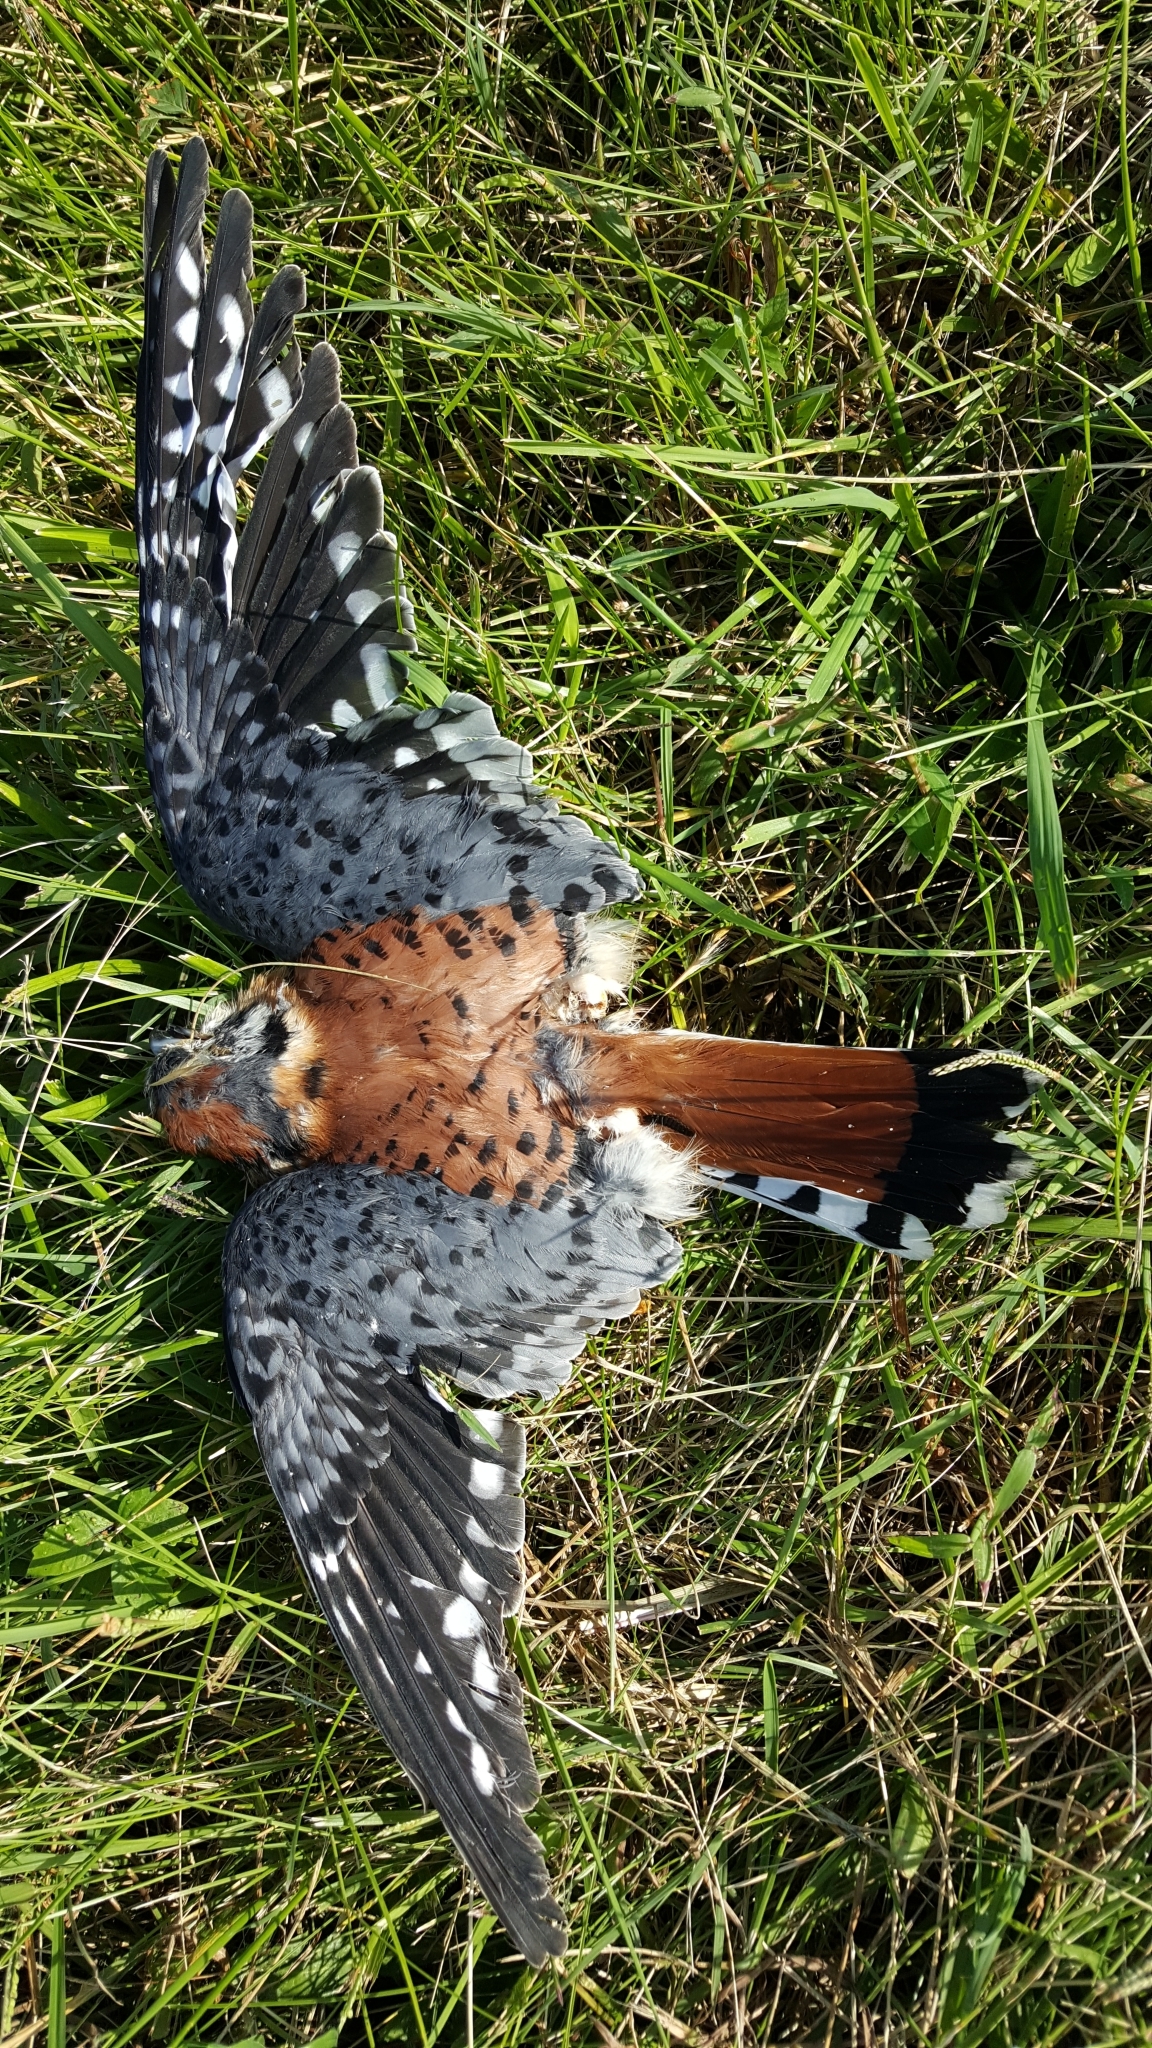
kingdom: Animalia
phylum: Chordata
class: Aves
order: Falconiformes
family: Falconidae
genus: Falco
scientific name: Falco sparverius
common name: American kestrel
